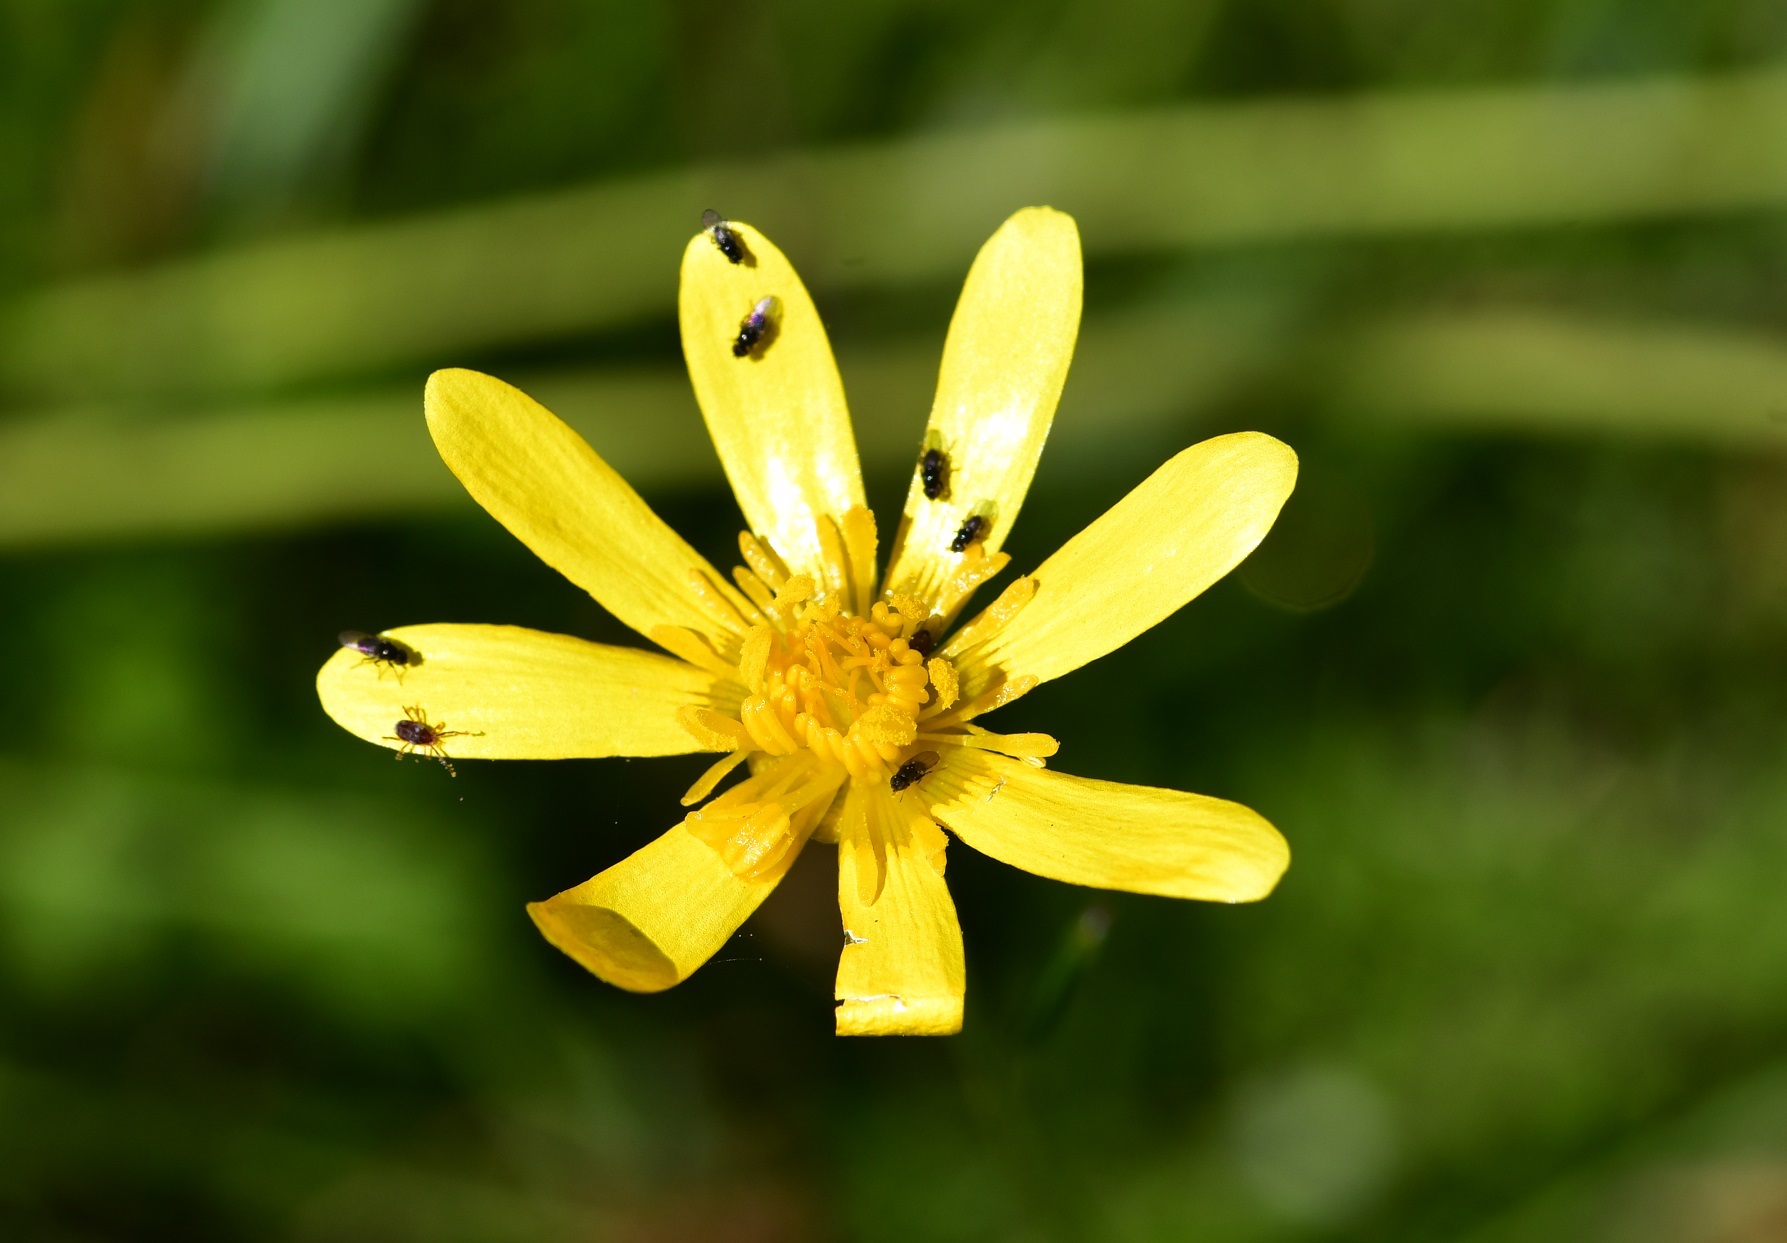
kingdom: Plantae
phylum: Tracheophyta
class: Magnoliopsida
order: Ranunculales
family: Ranunculaceae
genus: Ranunculus
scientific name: Ranunculus petiolaris
